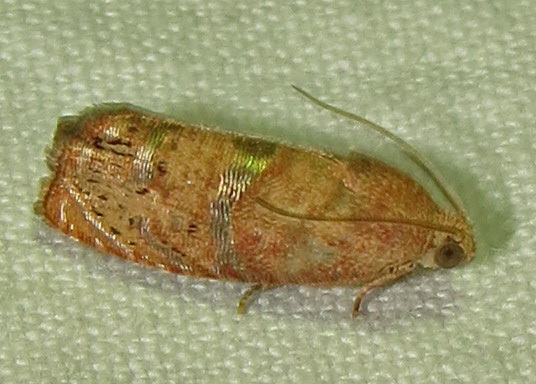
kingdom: Animalia
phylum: Arthropoda
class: Insecta
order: Lepidoptera
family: Tortricidae
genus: Cydia
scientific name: Cydia latiferreana
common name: Filbertworm moth
